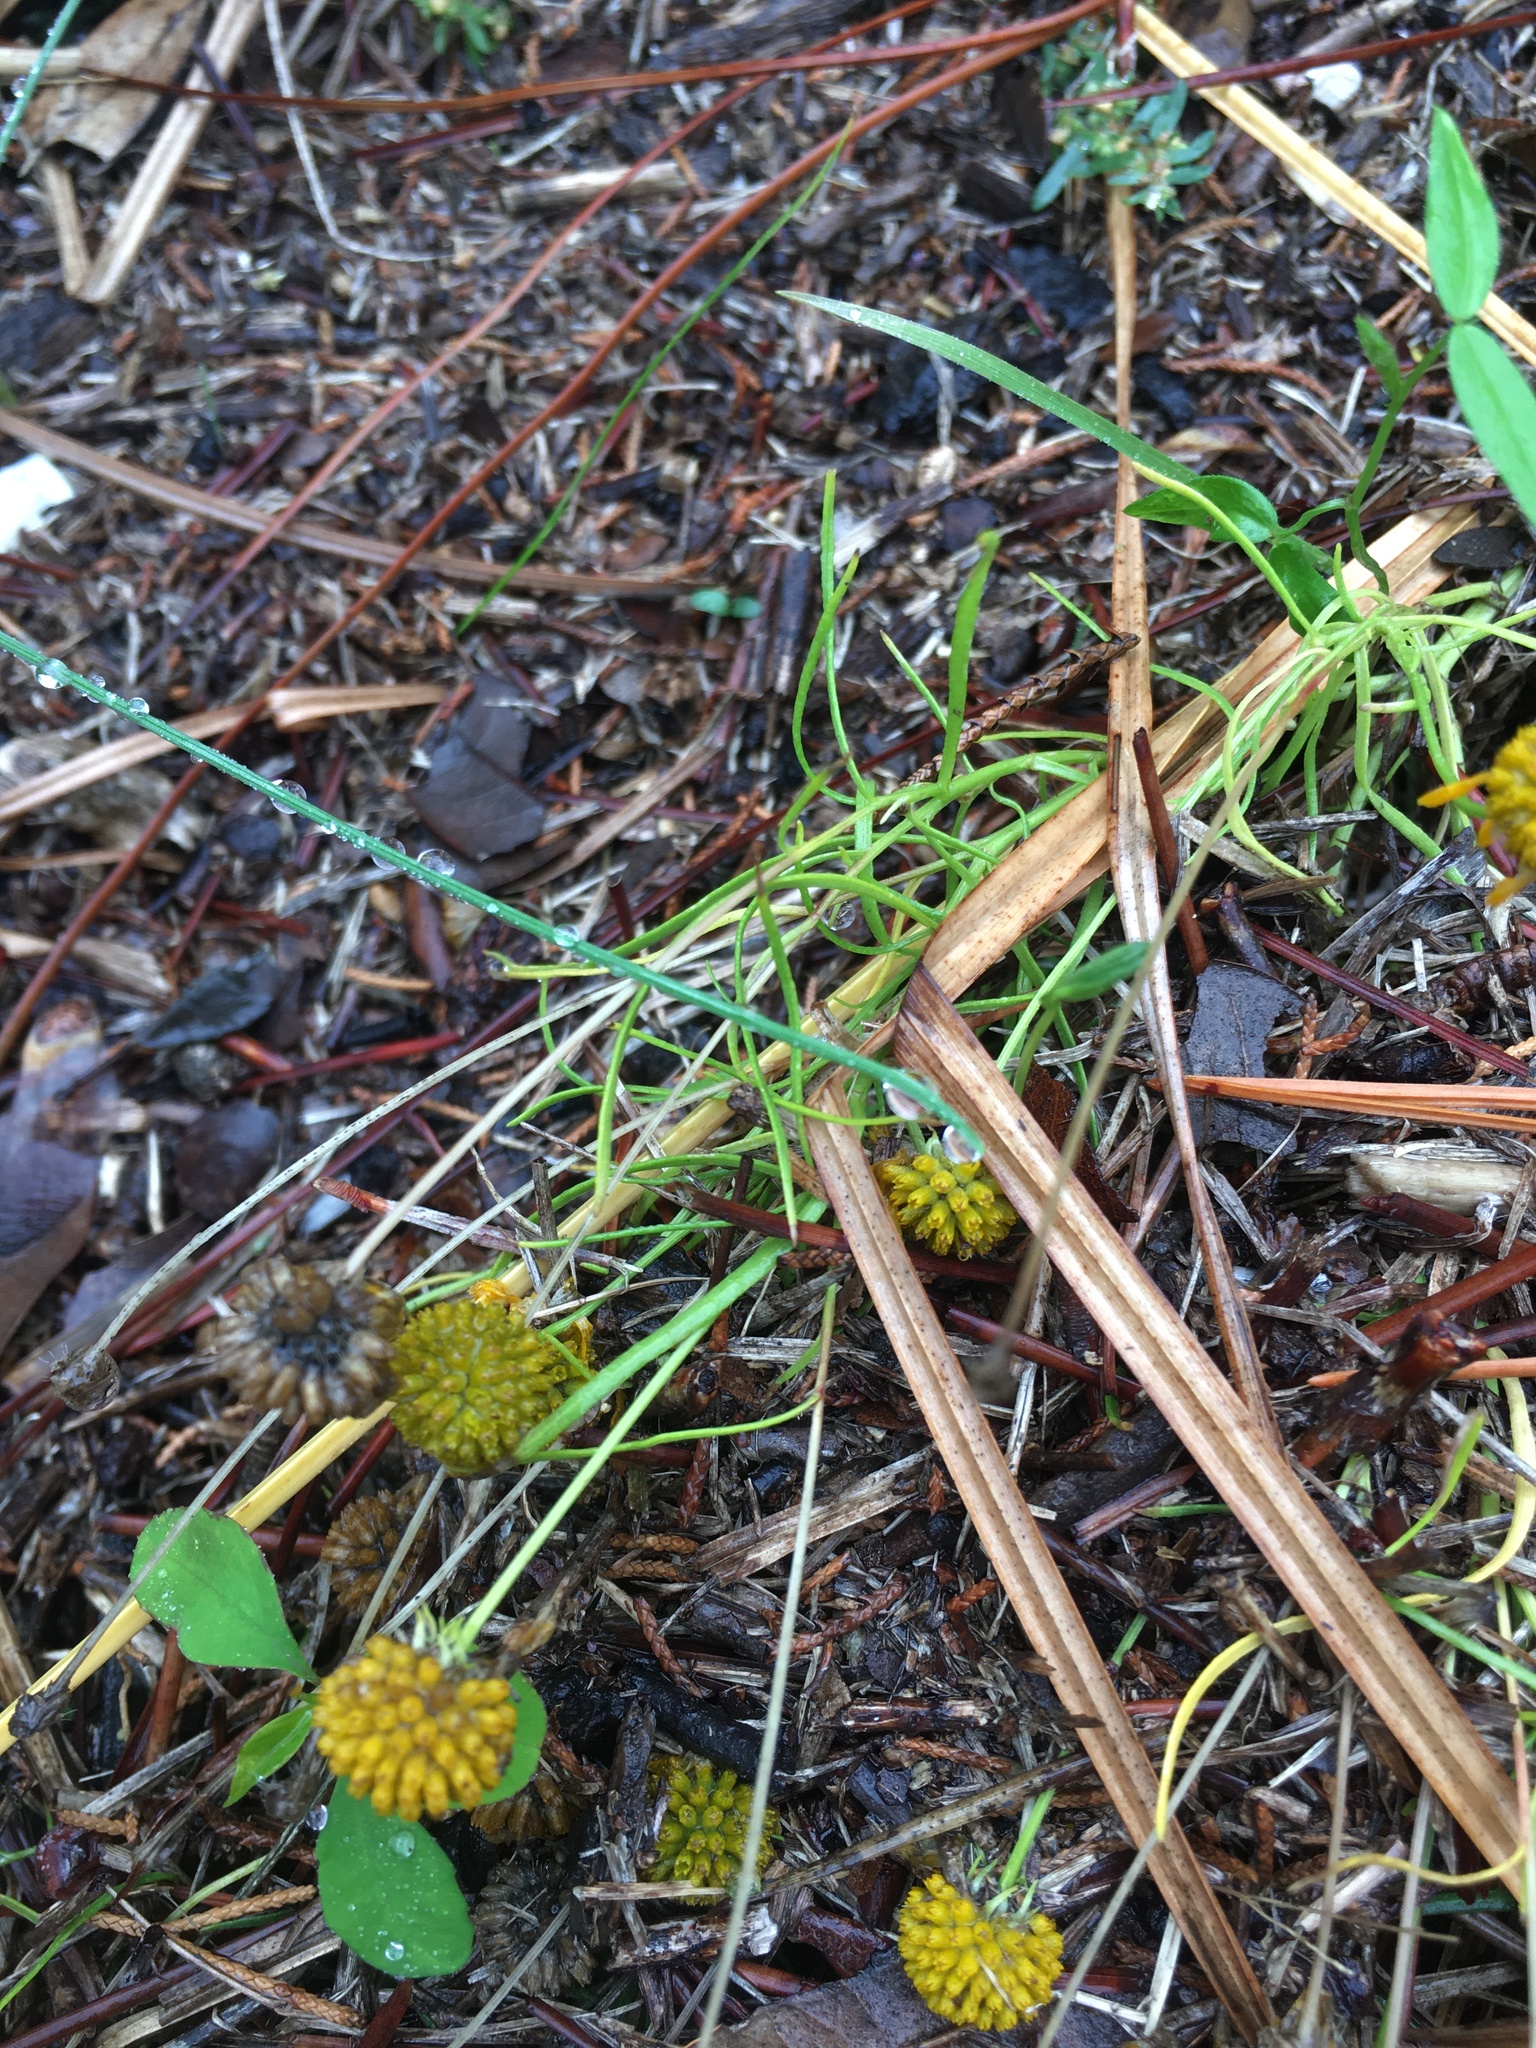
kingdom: Plantae
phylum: Tracheophyta
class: Magnoliopsida
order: Asterales
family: Asteraceae
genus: Helenium
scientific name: Helenium amarum
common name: Bitter sneezeweed
